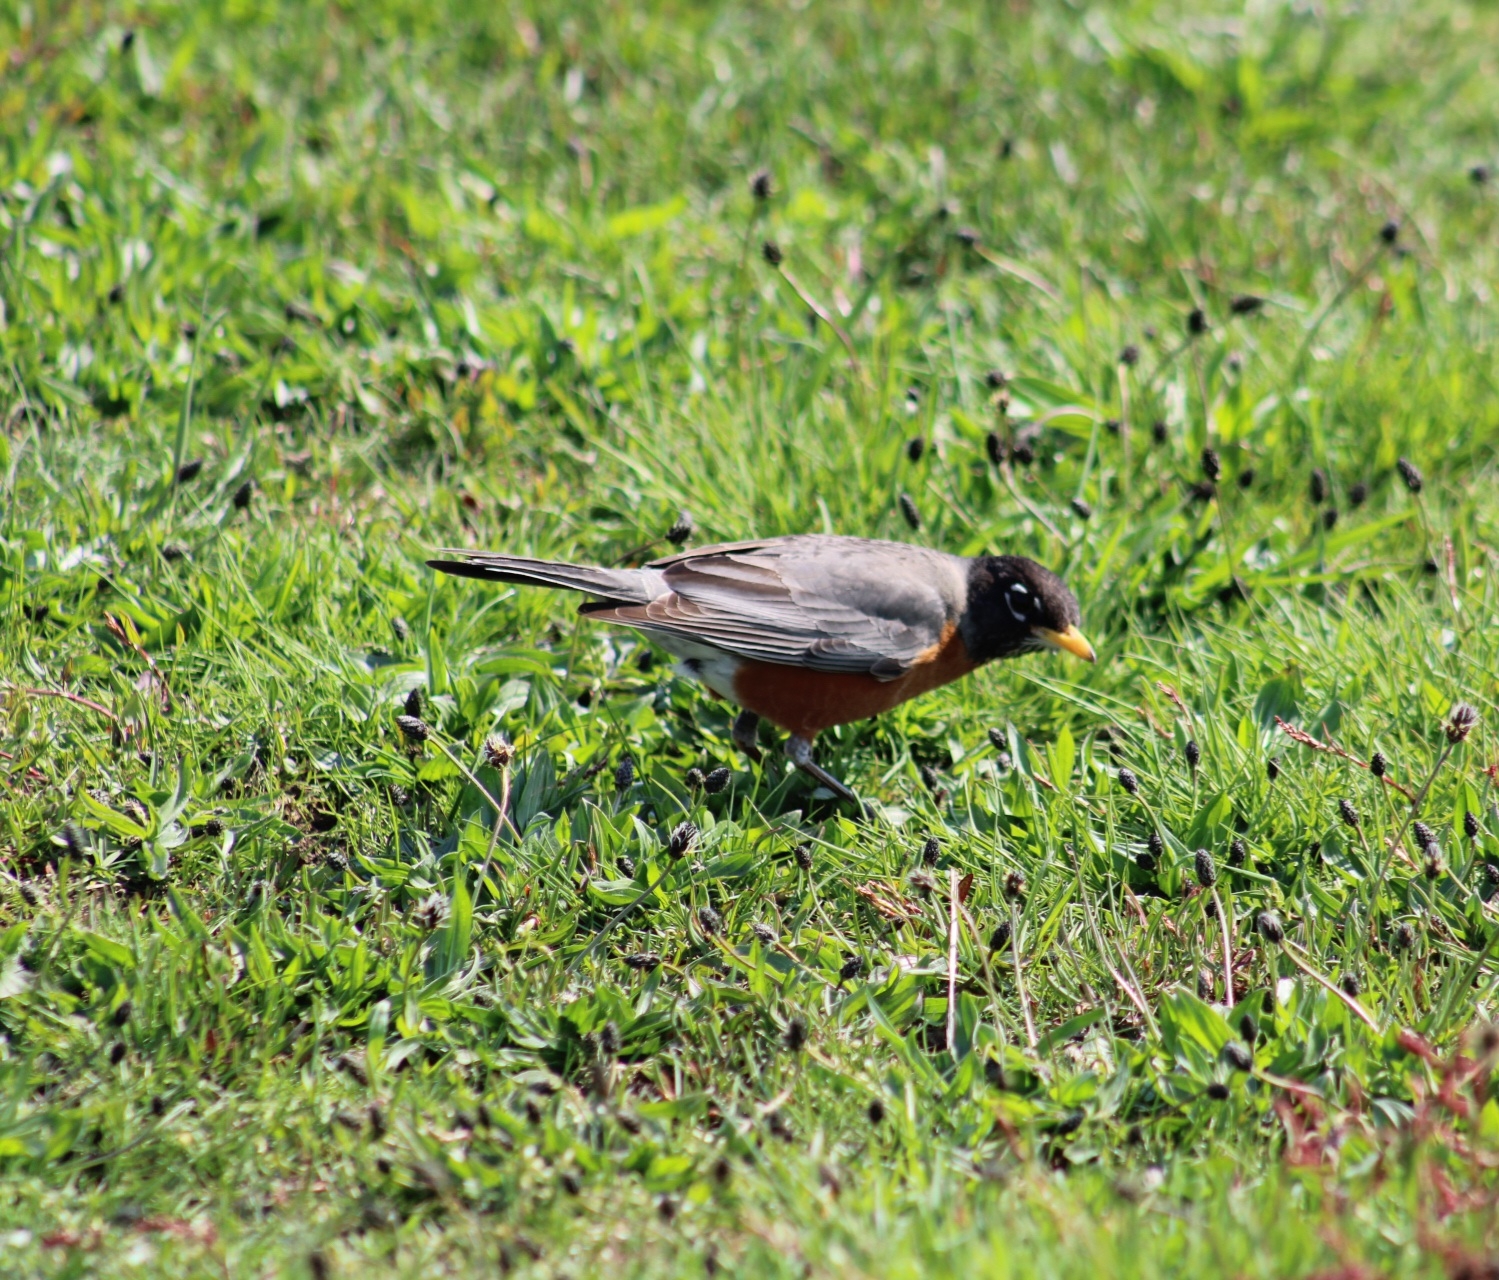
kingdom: Animalia
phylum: Chordata
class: Aves
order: Passeriformes
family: Turdidae
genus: Turdus
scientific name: Turdus migratorius
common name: American robin
